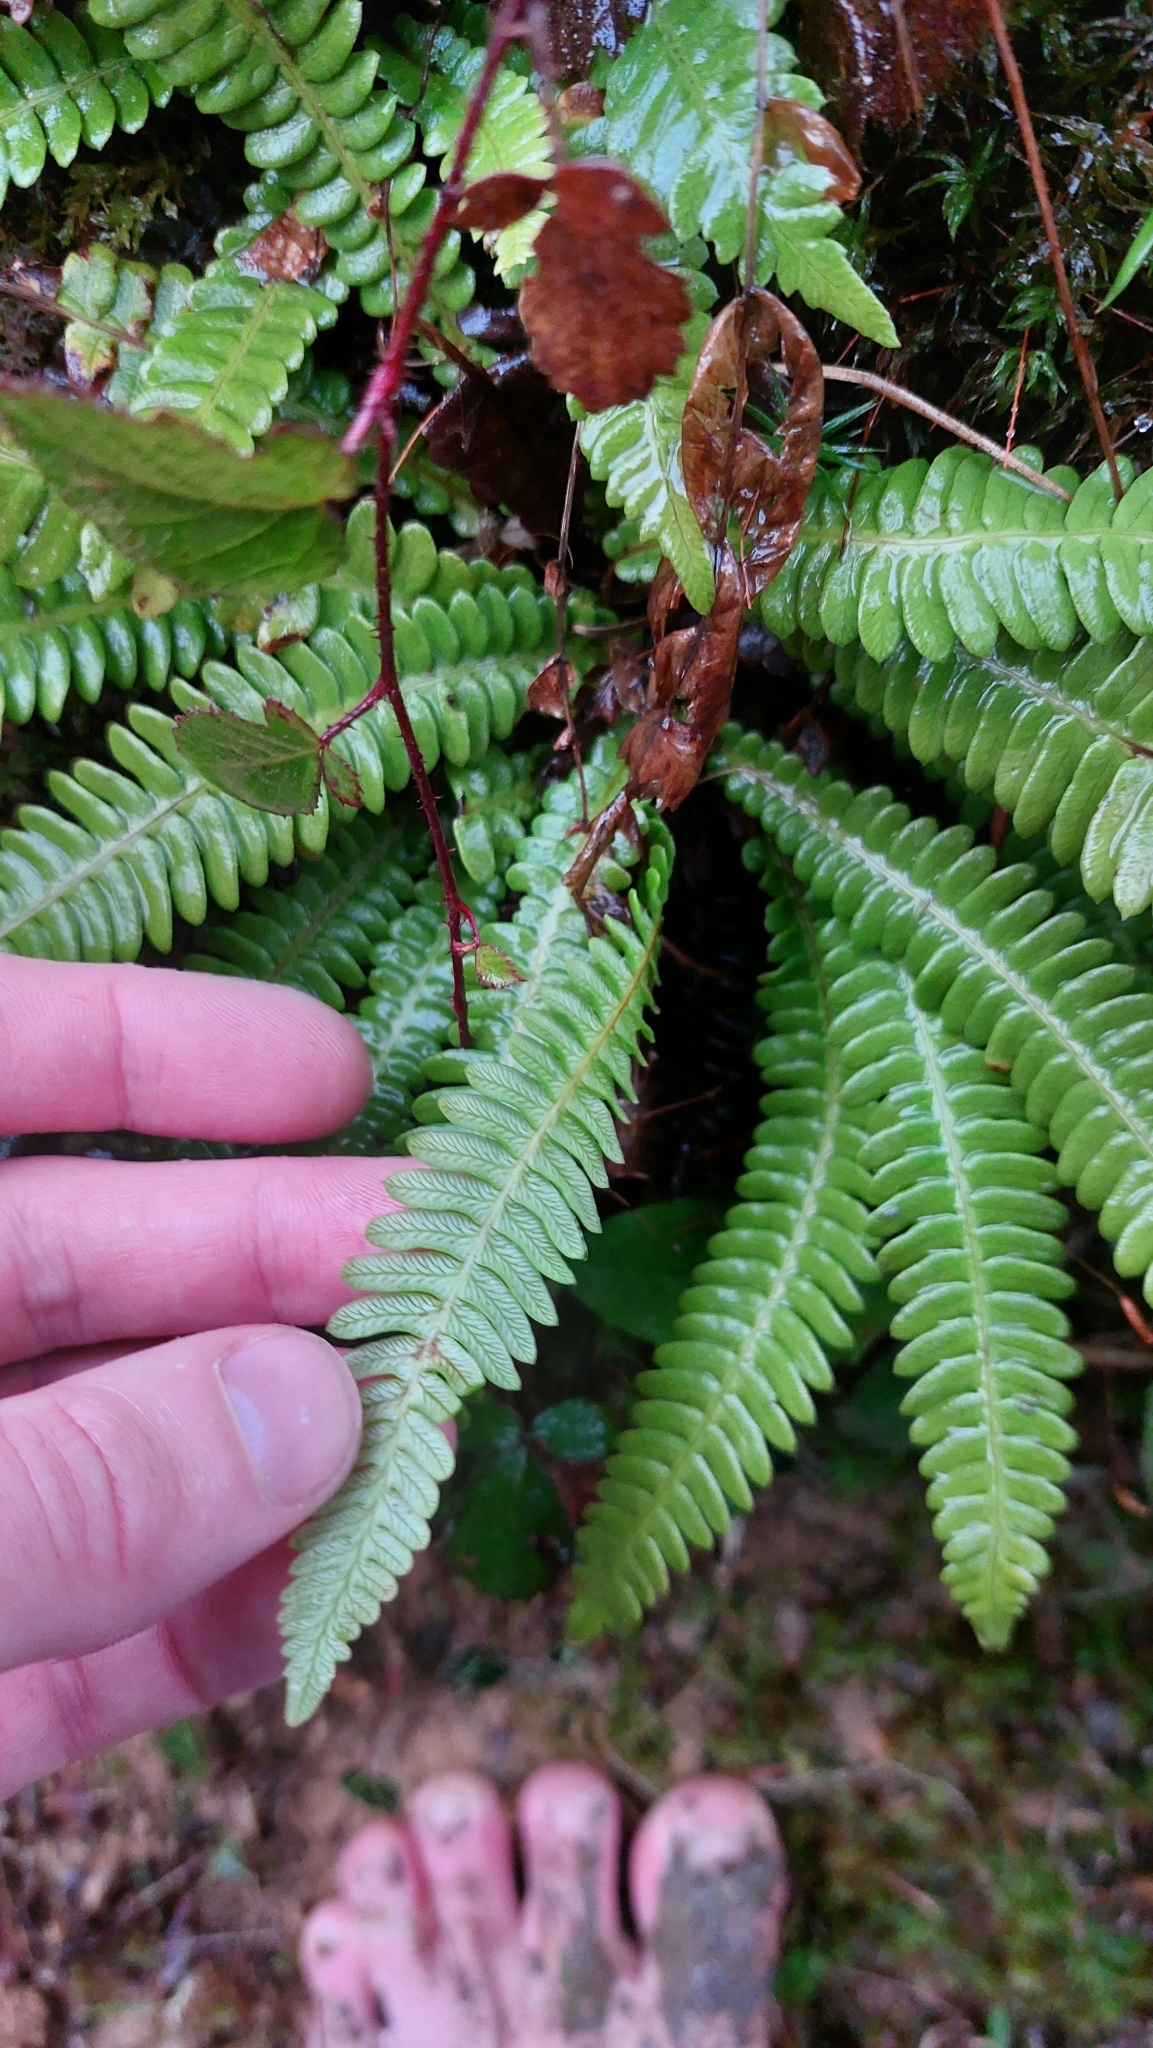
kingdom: Plantae
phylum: Tracheophyta
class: Polypodiopsida
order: Polypodiales
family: Blechnaceae
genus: Struthiopteris
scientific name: Struthiopteris spicant
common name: Deer fern
